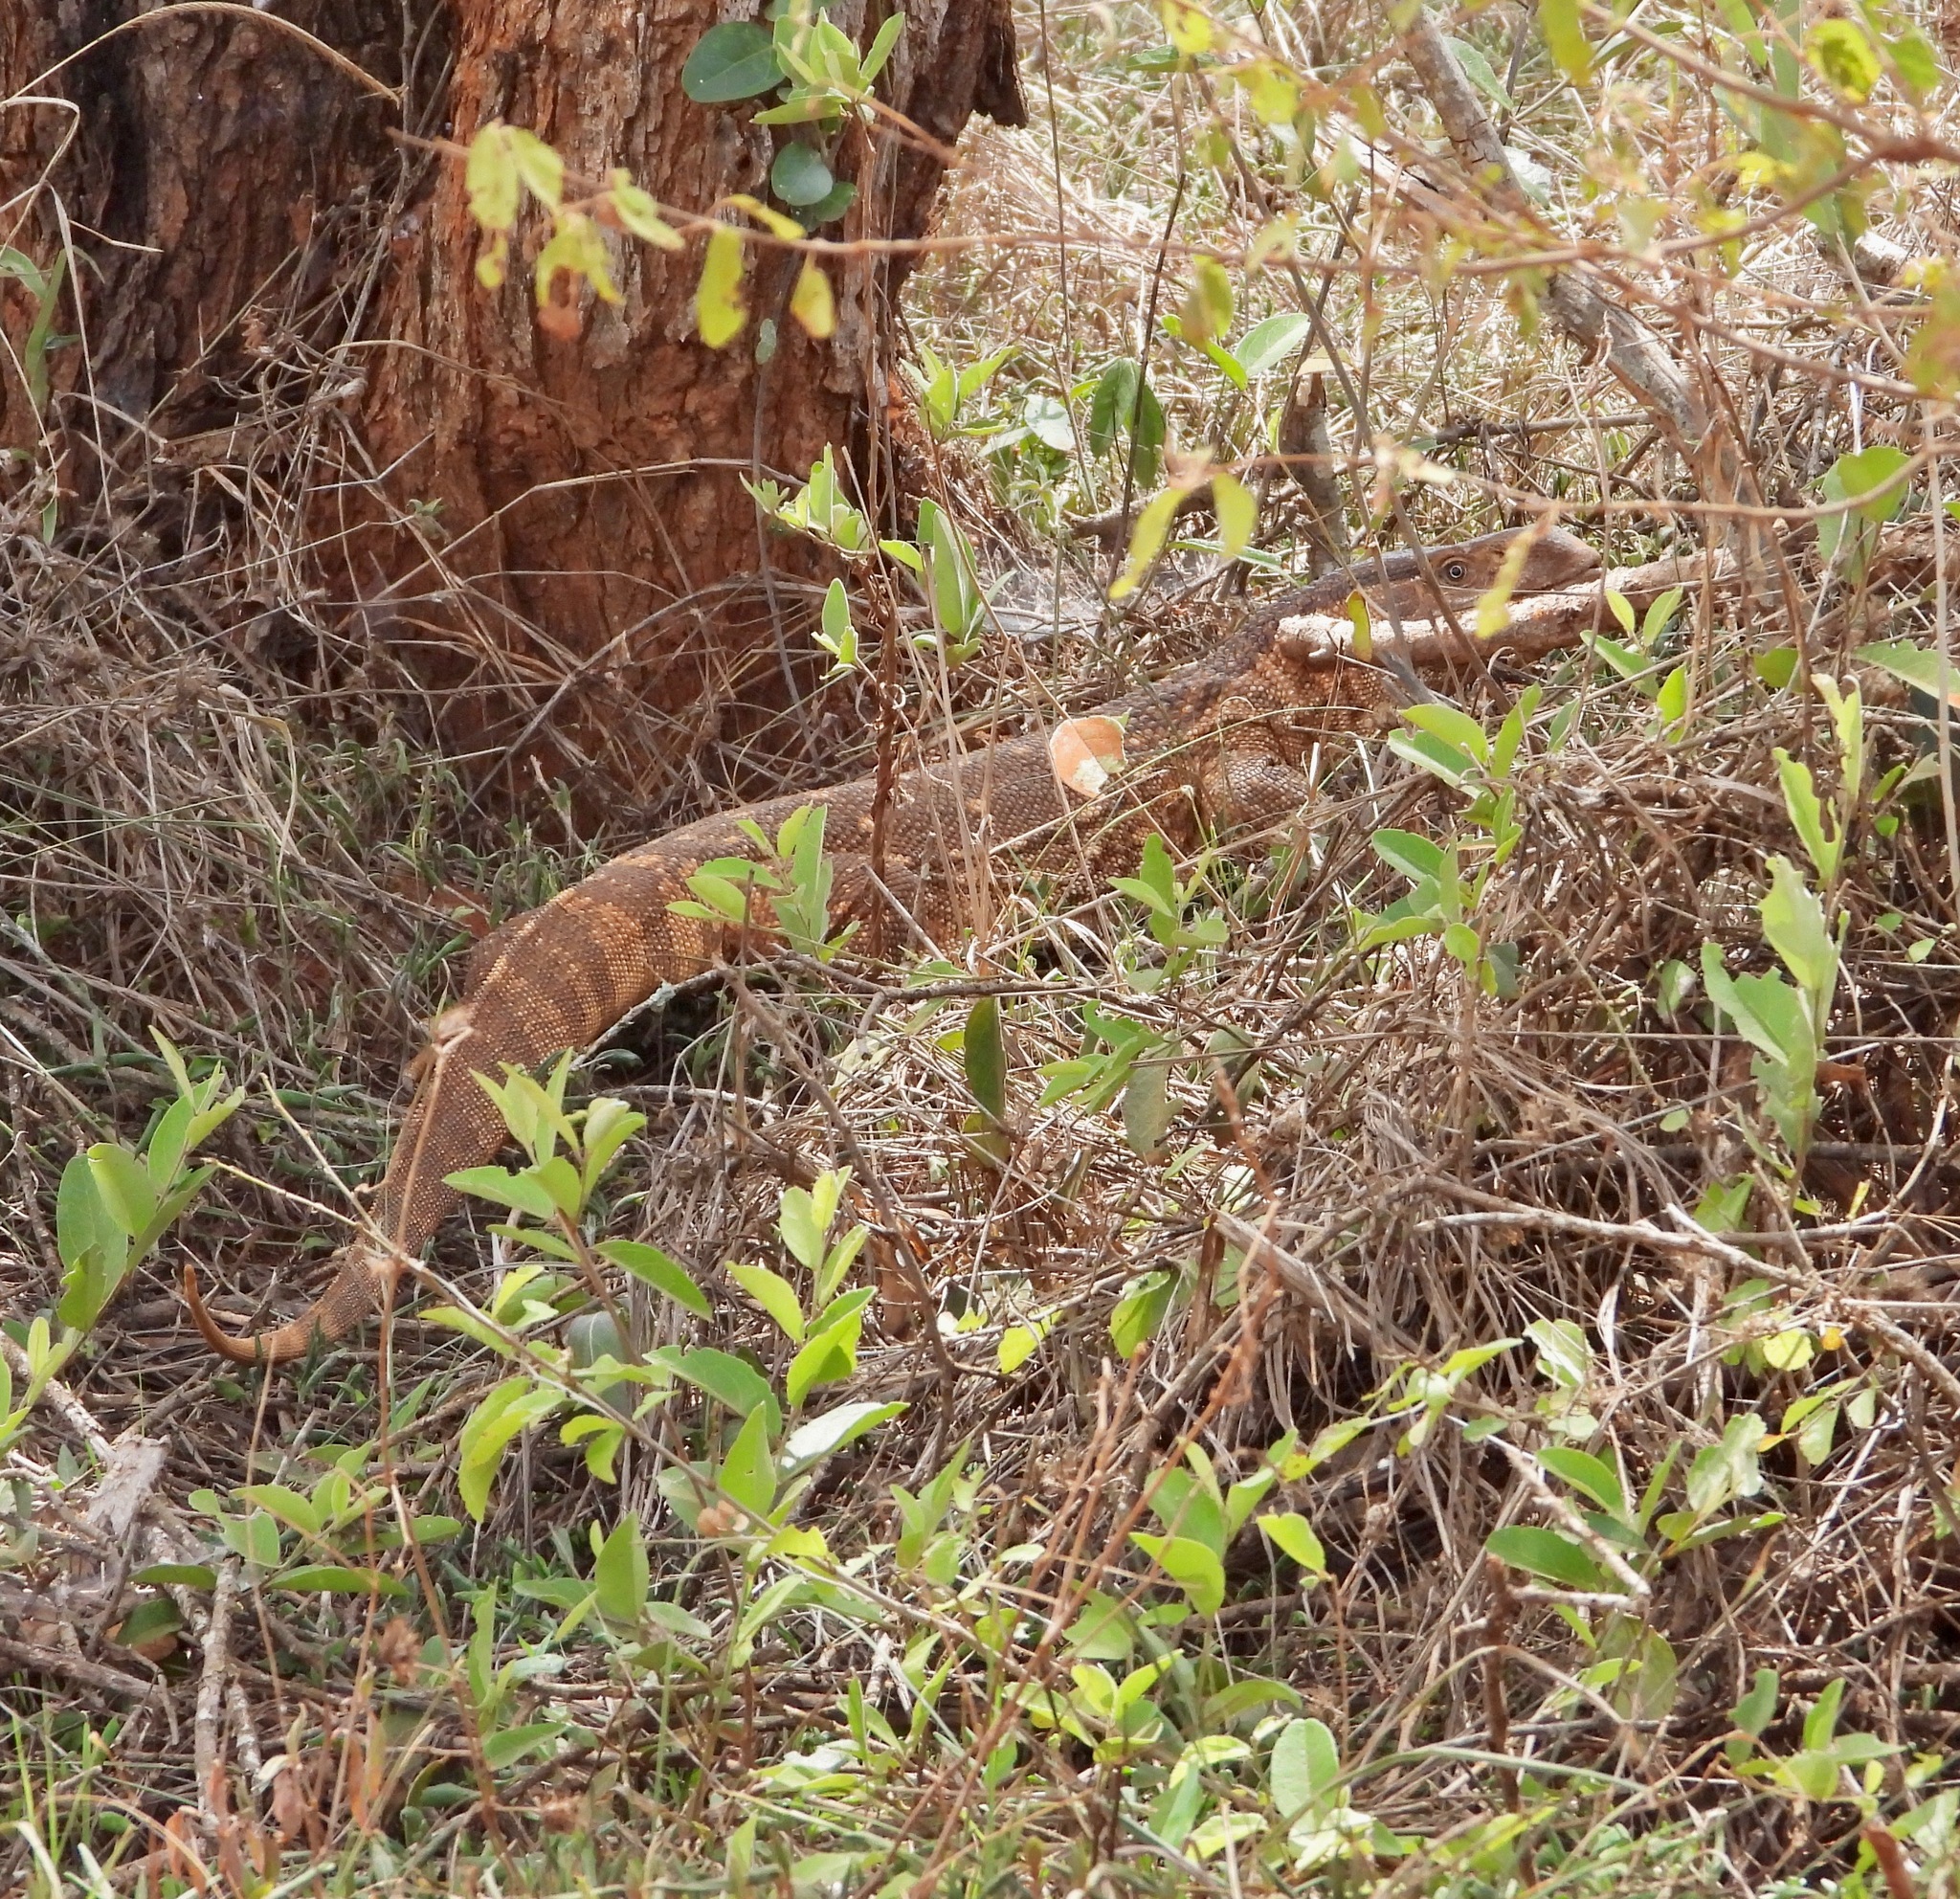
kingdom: Animalia
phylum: Chordata
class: Squamata
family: Varanidae
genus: Varanus
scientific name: Varanus albigularis
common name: White-throated monitor
